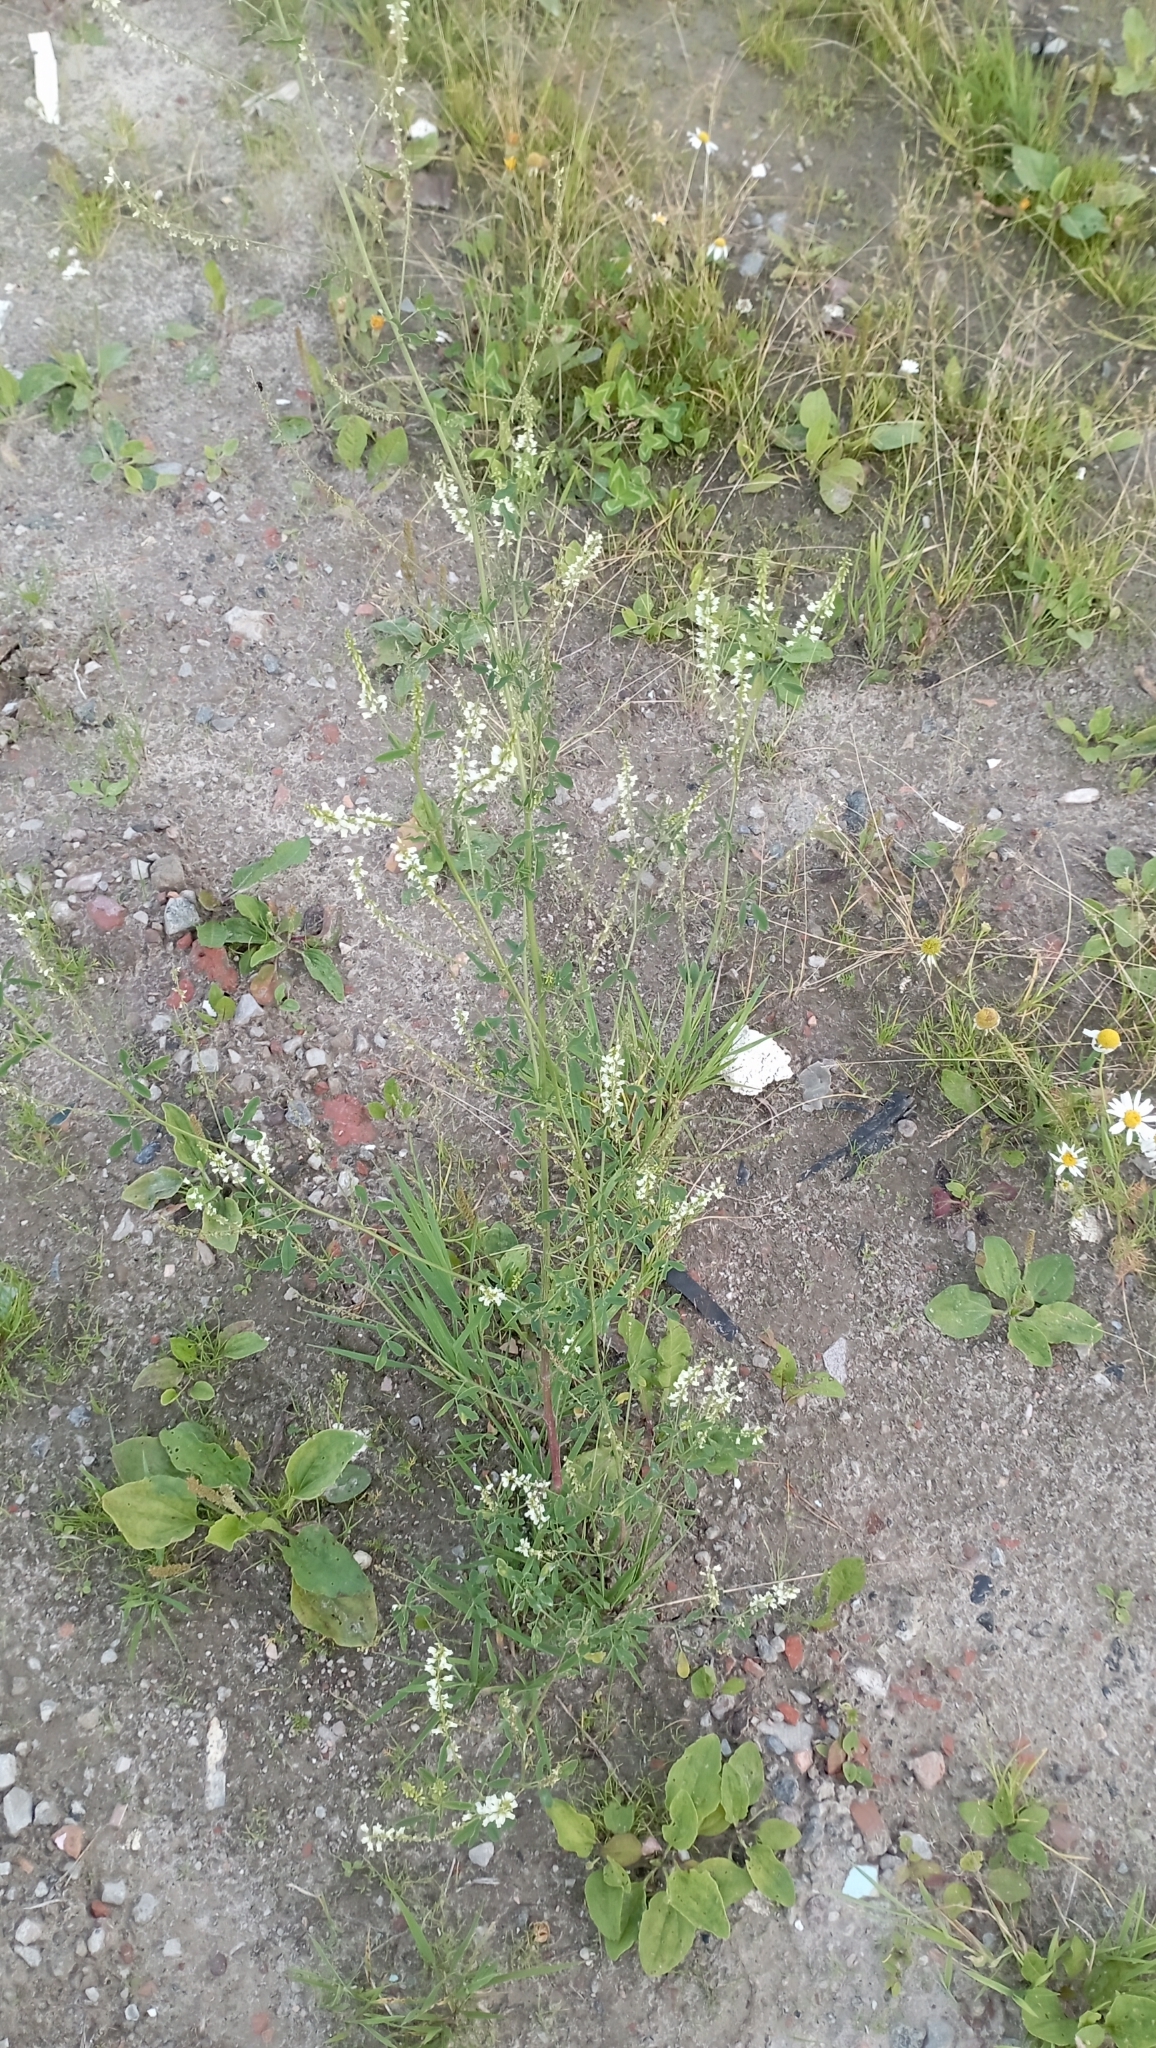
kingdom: Plantae
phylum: Tracheophyta
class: Magnoliopsida
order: Fabales
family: Fabaceae
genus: Melilotus
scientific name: Melilotus albus
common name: White melilot
